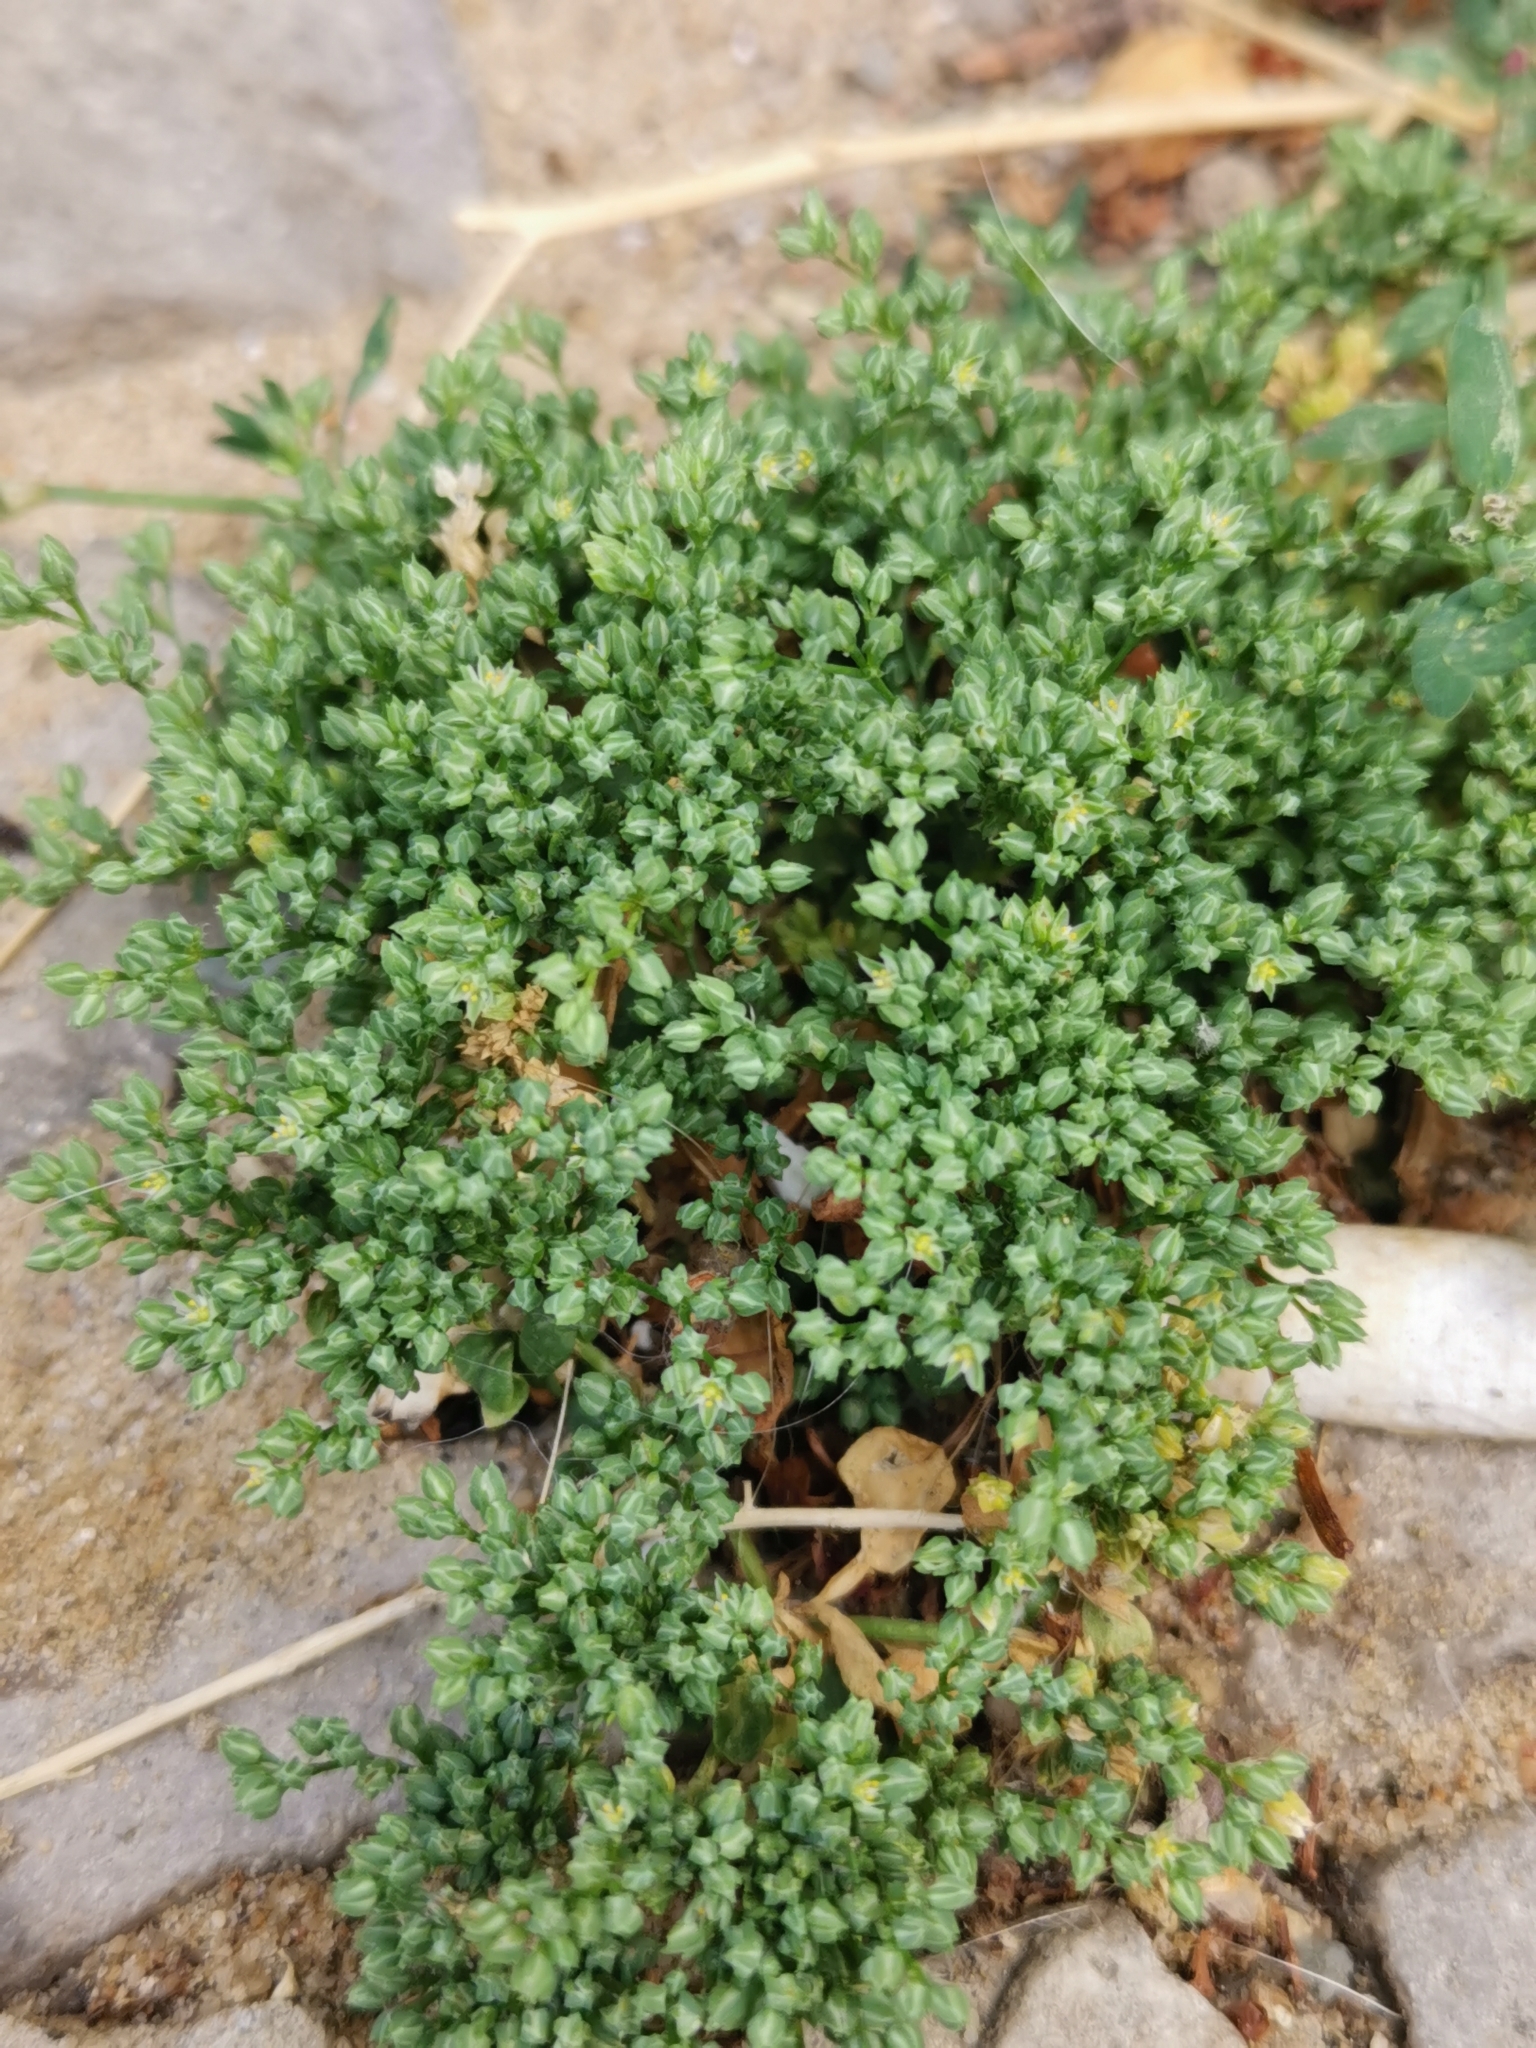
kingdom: Plantae
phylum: Tracheophyta
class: Magnoliopsida
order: Caryophyllales
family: Caryophyllaceae
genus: Polycarpon
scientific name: Polycarpon tetraphyllum
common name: Four-leaved all-seed
